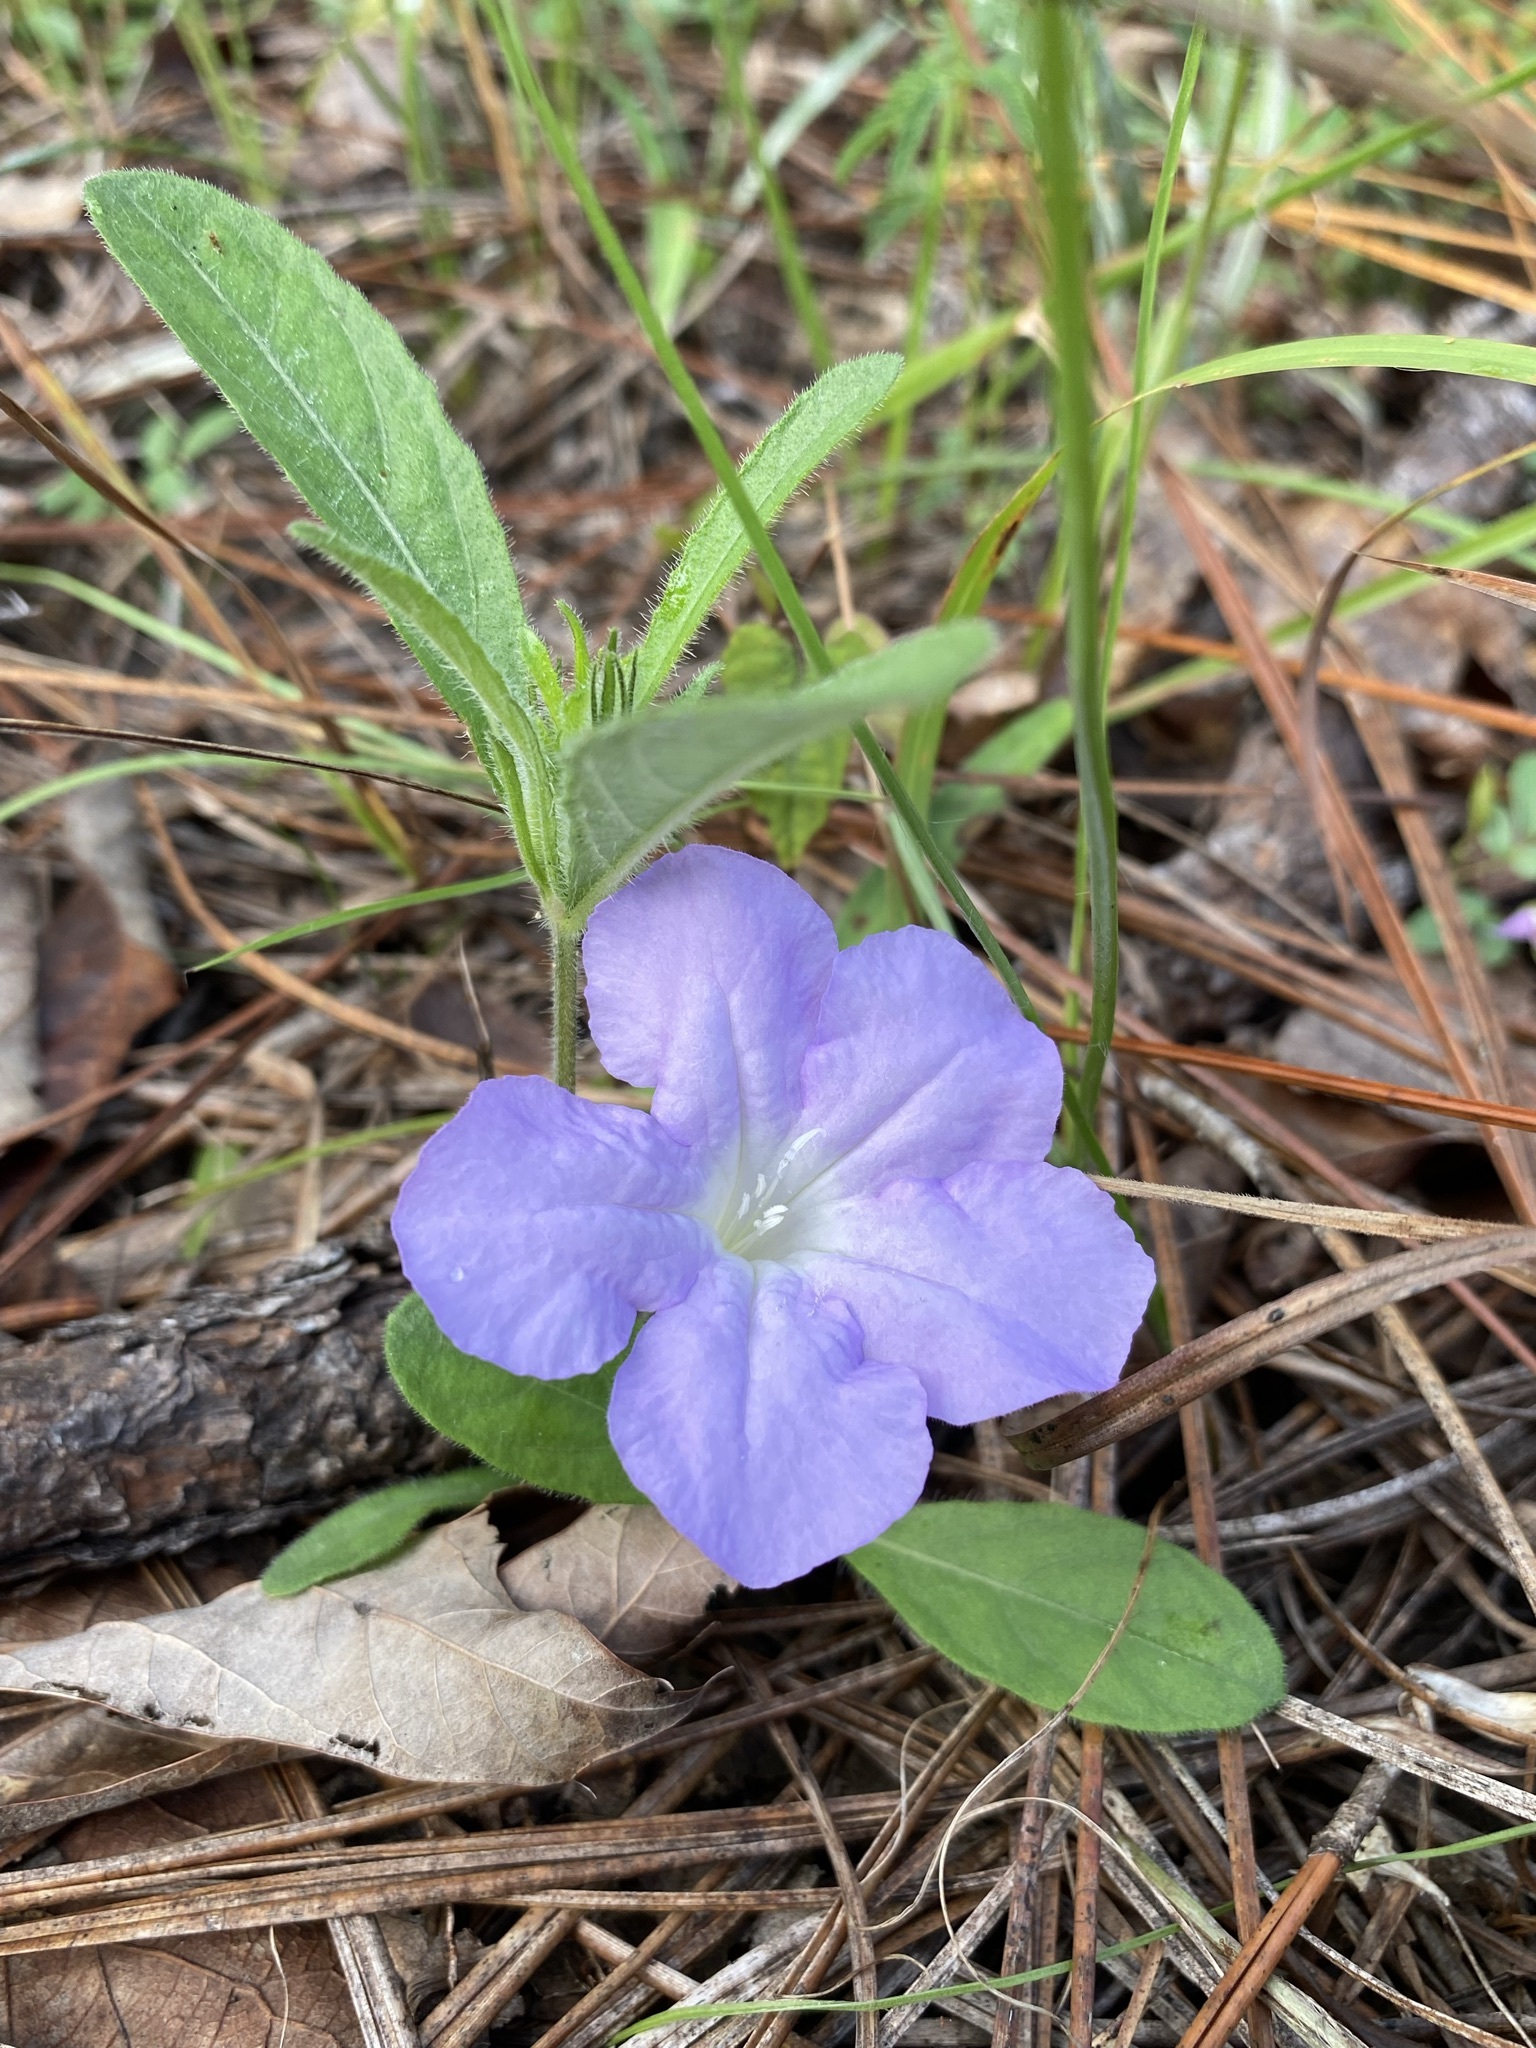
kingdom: Plantae
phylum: Tracheophyta
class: Magnoliopsida
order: Lamiales
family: Acanthaceae
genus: Ruellia
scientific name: Ruellia caroliniensis
